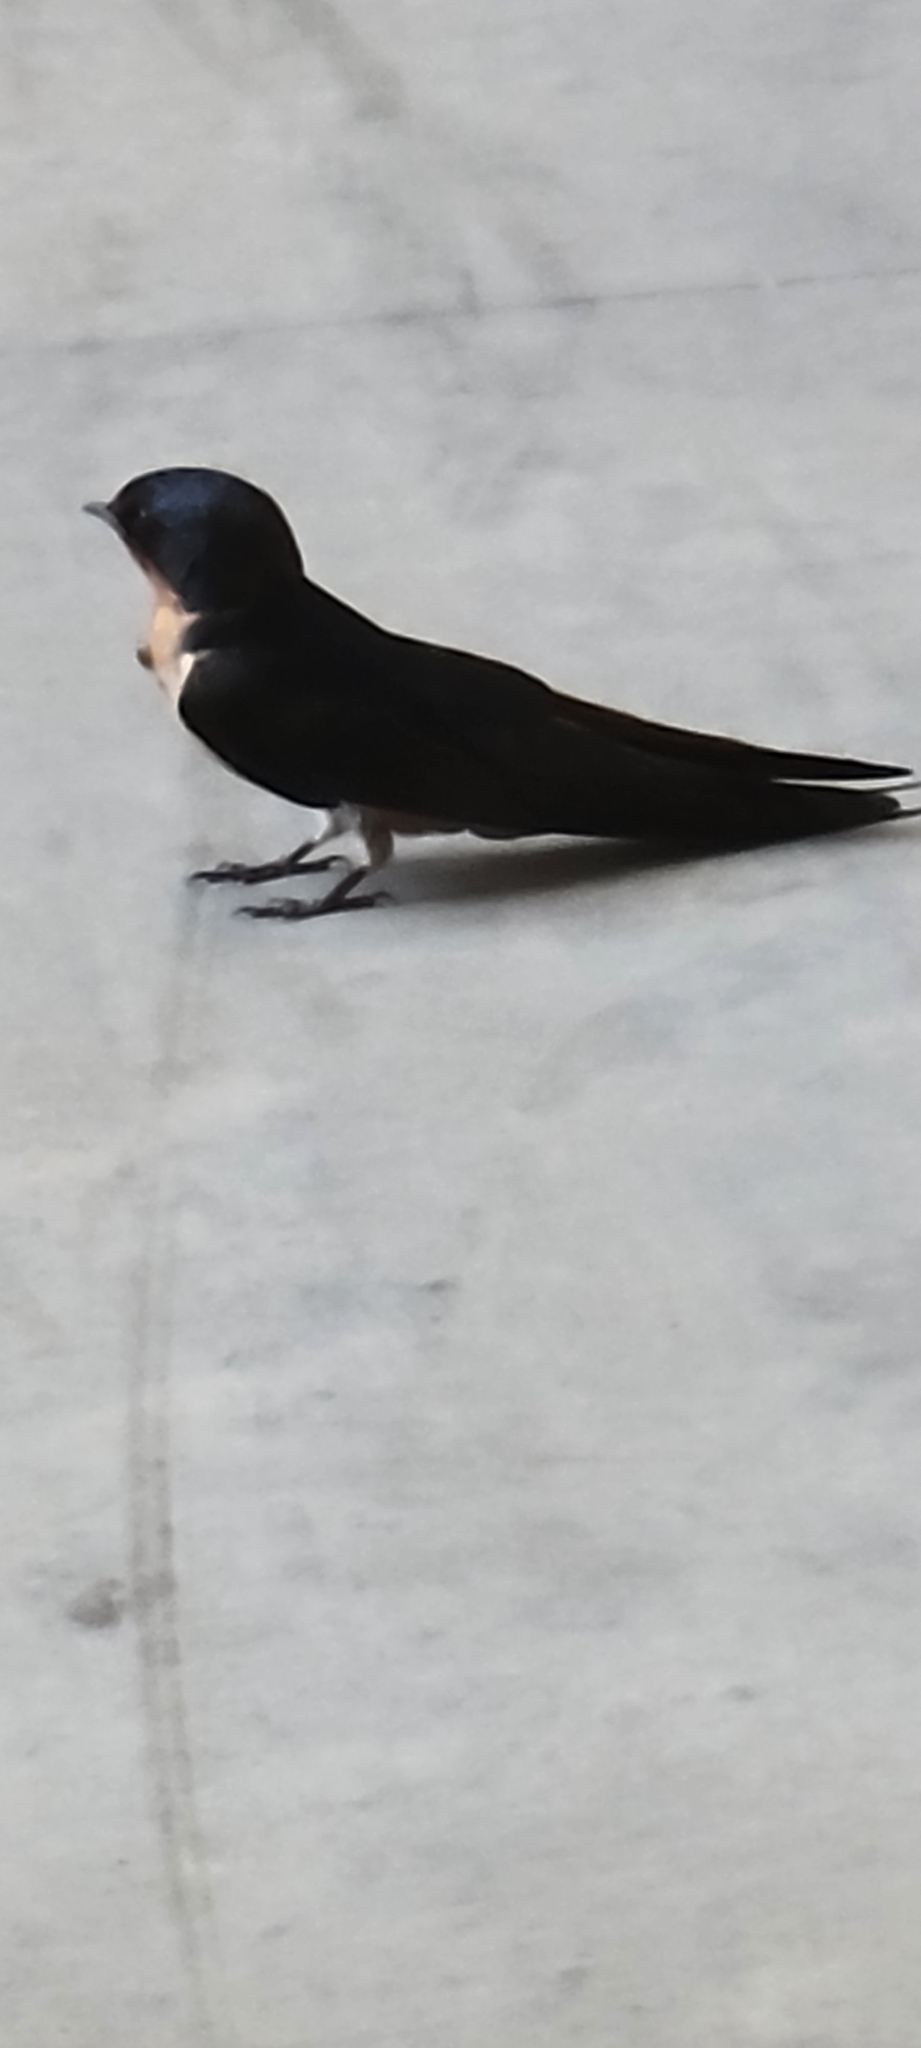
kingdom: Animalia
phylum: Chordata
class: Aves
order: Passeriformes
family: Hirundinidae
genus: Hirundo
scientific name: Hirundo rustica
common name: Barn swallow
